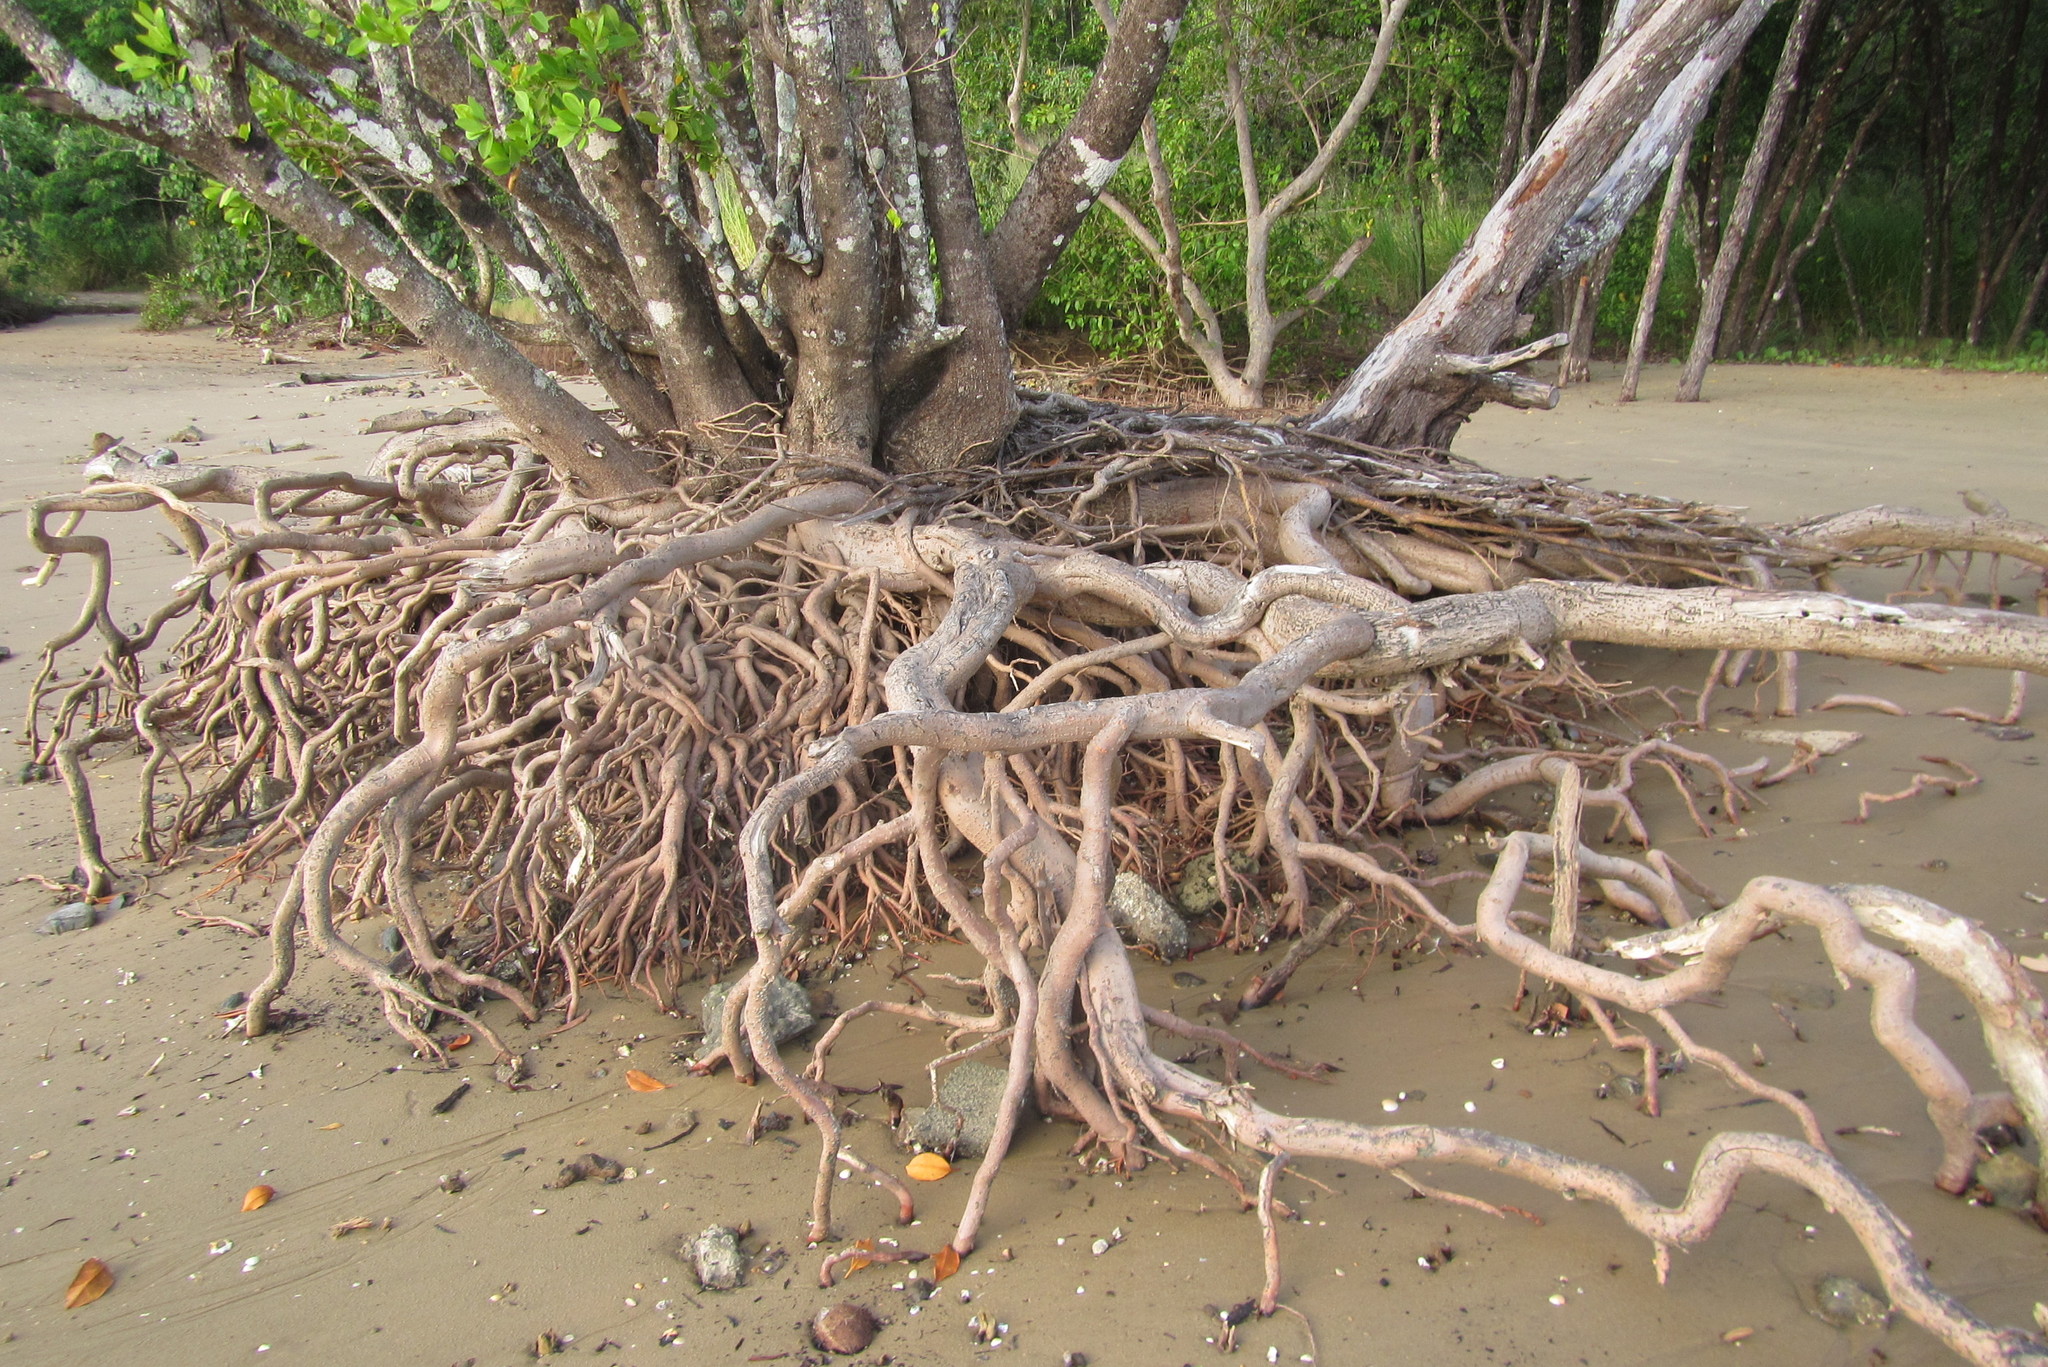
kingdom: Plantae
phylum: Tracheophyta
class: Magnoliopsida
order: Malpighiales
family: Euphorbiaceae
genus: Excoecaria
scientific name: Excoecaria agallocha
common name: River poisontree
